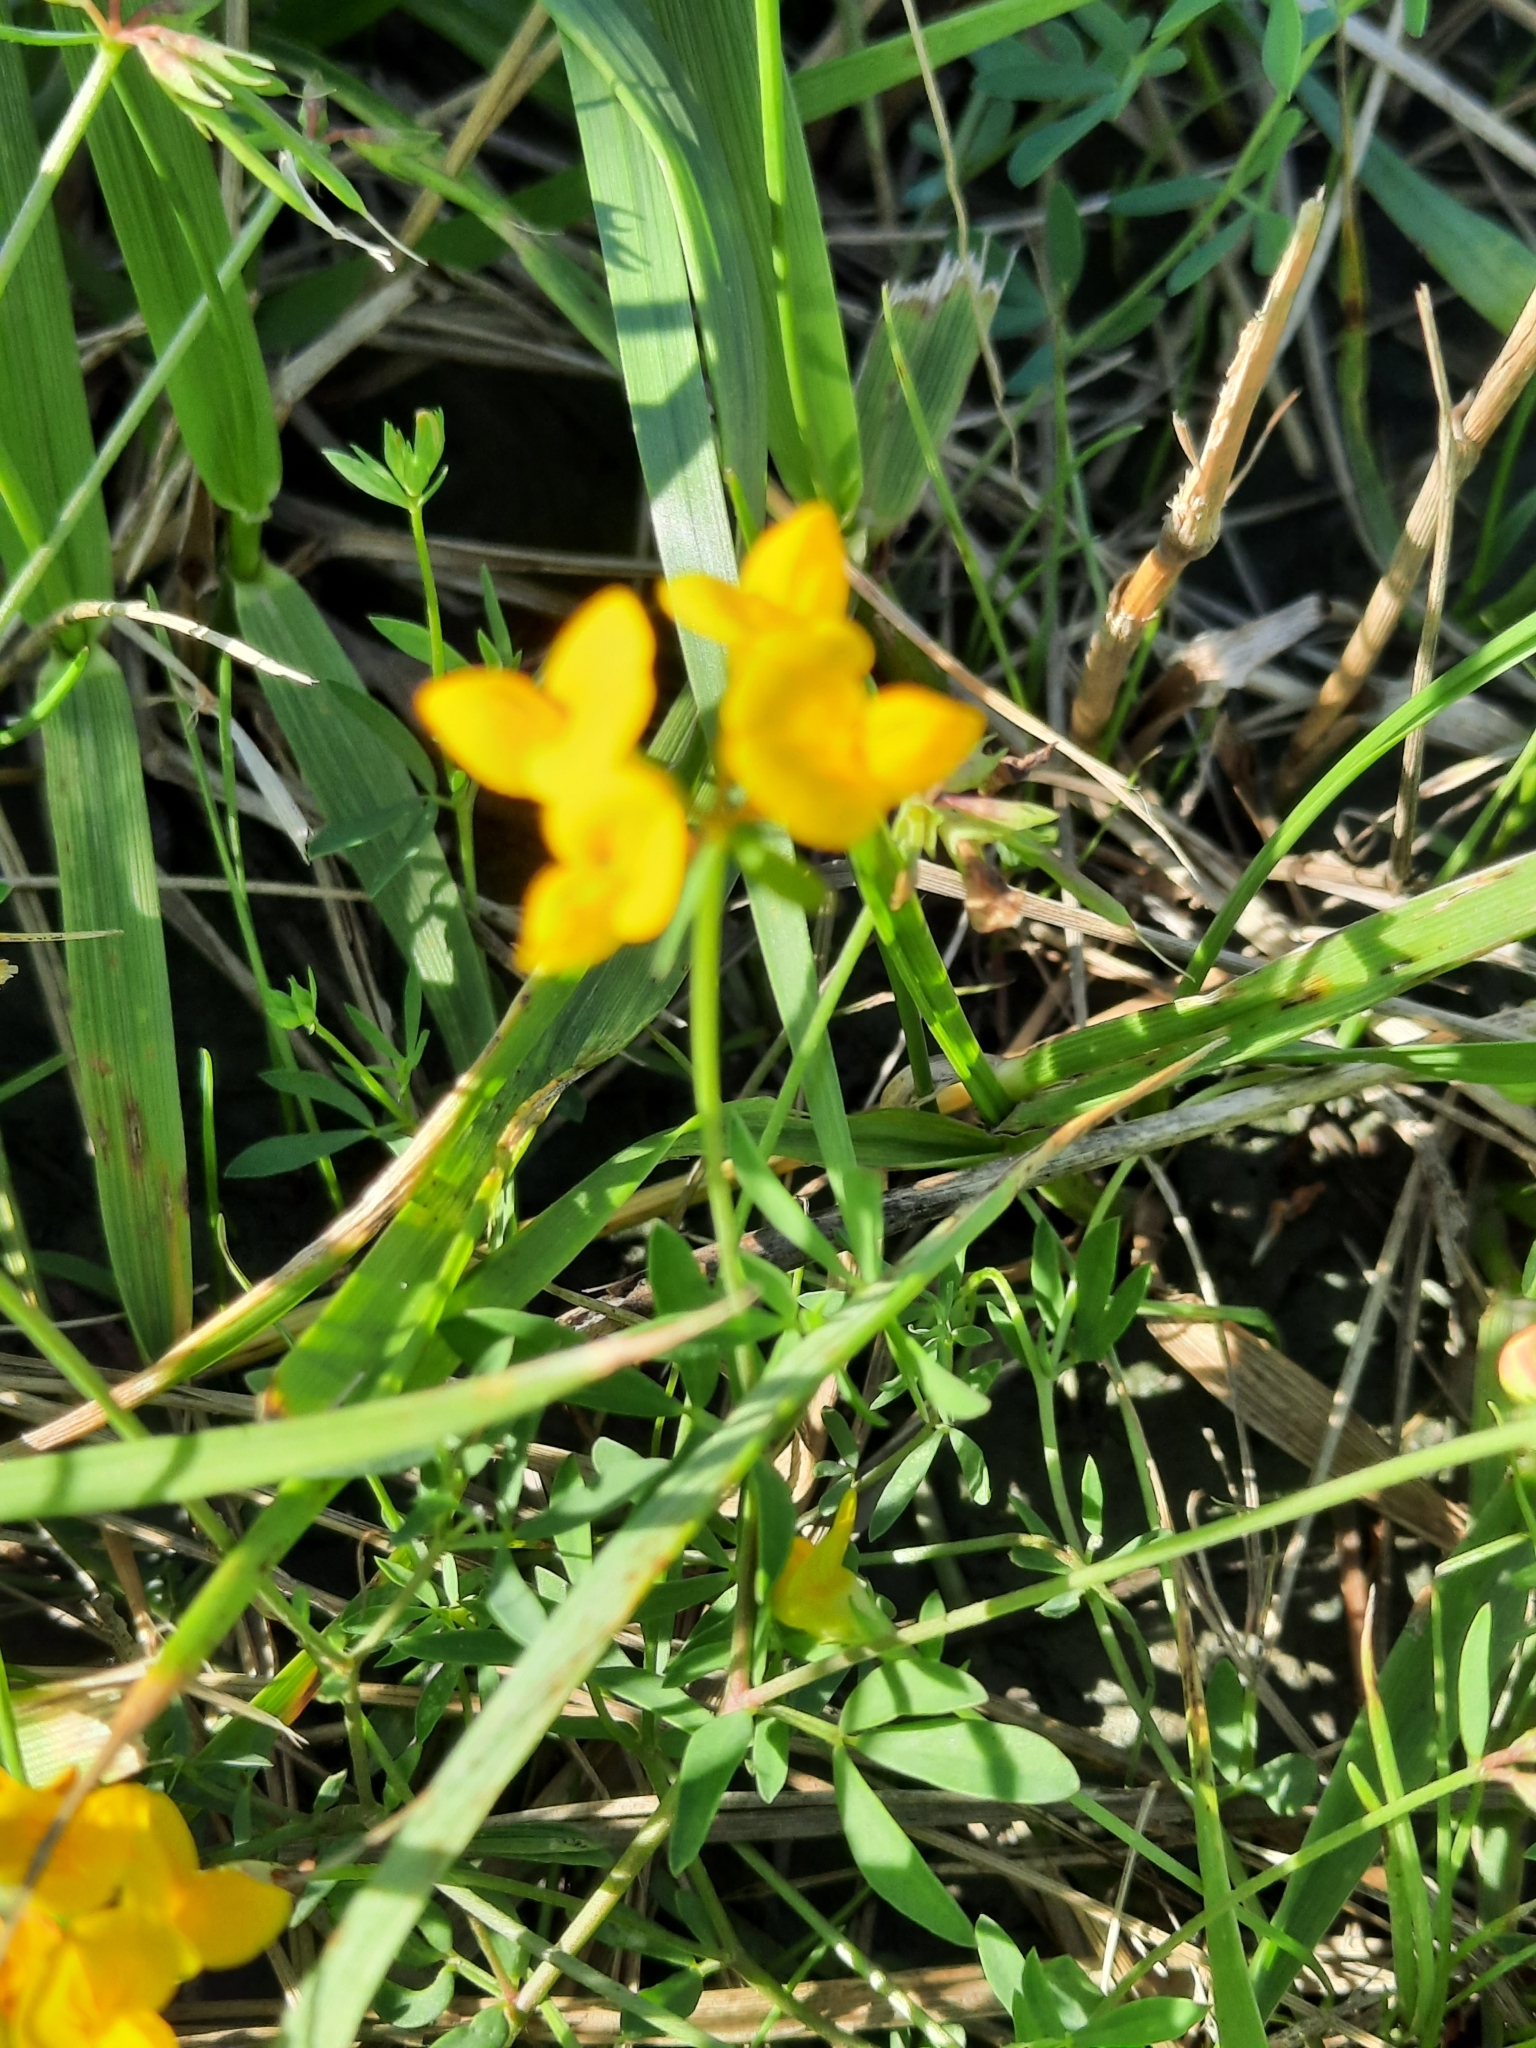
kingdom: Plantae
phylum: Tracheophyta
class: Magnoliopsida
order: Fabales
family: Fabaceae
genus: Lotus
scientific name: Lotus tenuis
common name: Narrow-leaved bird's-foot-trefoil
